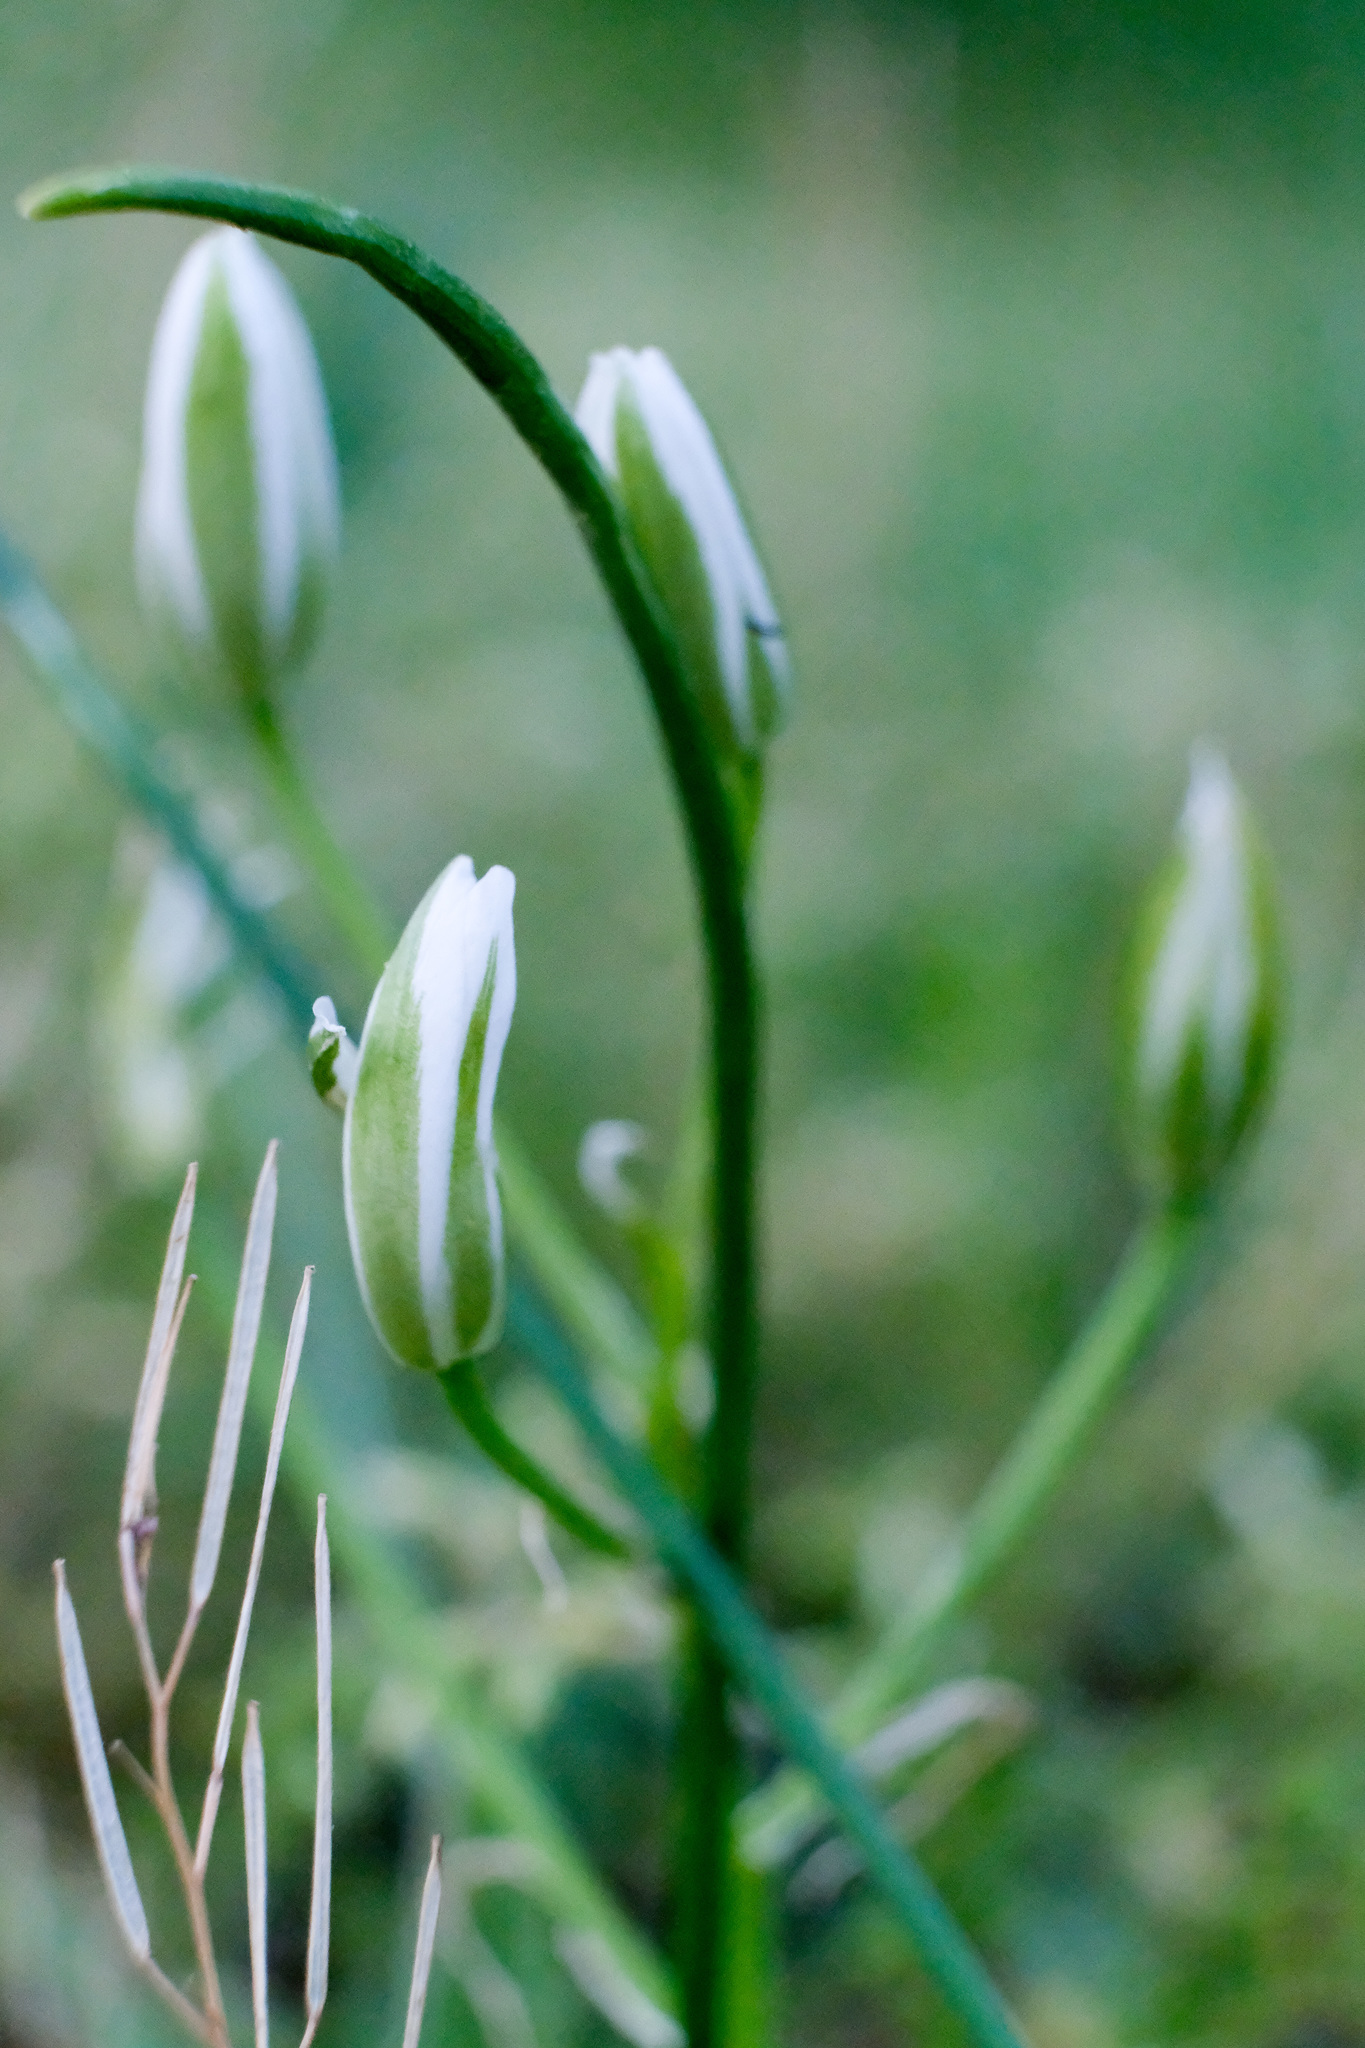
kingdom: Plantae
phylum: Tracheophyta
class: Liliopsida
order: Asparagales
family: Asparagaceae
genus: Ornithogalum
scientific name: Ornithogalum umbellatum
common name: Garden star-of-bethlehem
